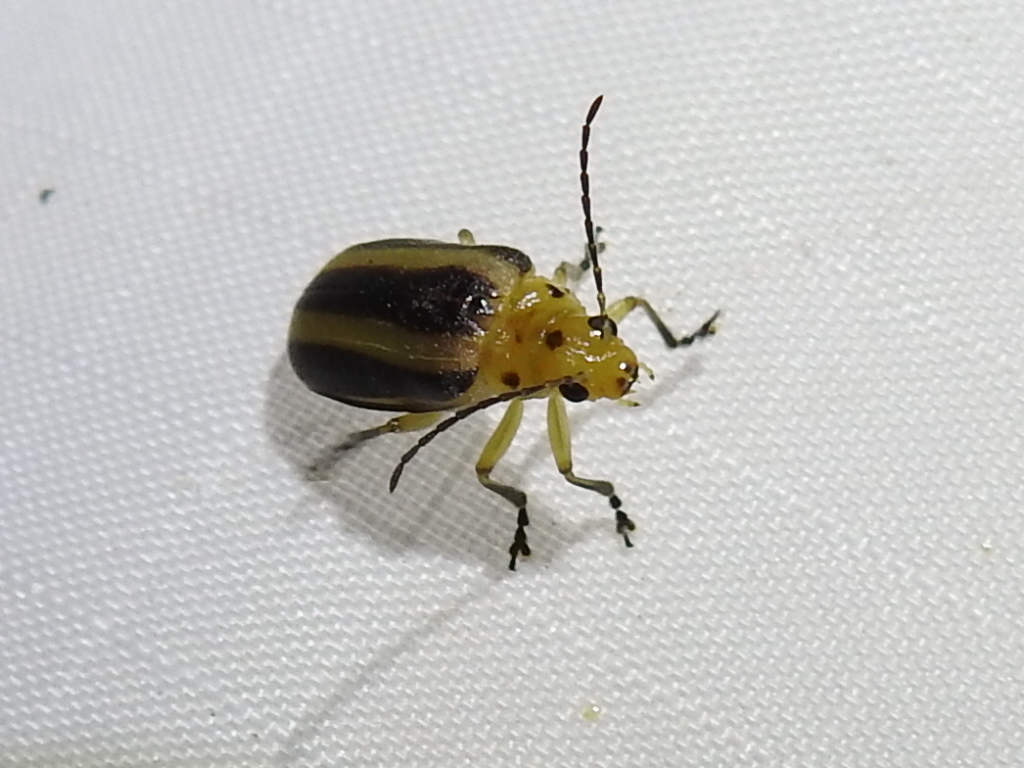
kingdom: Animalia
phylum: Arthropoda
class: Insecta
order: Coleoptera
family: Chrysomelidae
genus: Derospidea
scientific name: Derospidea brevicollis
